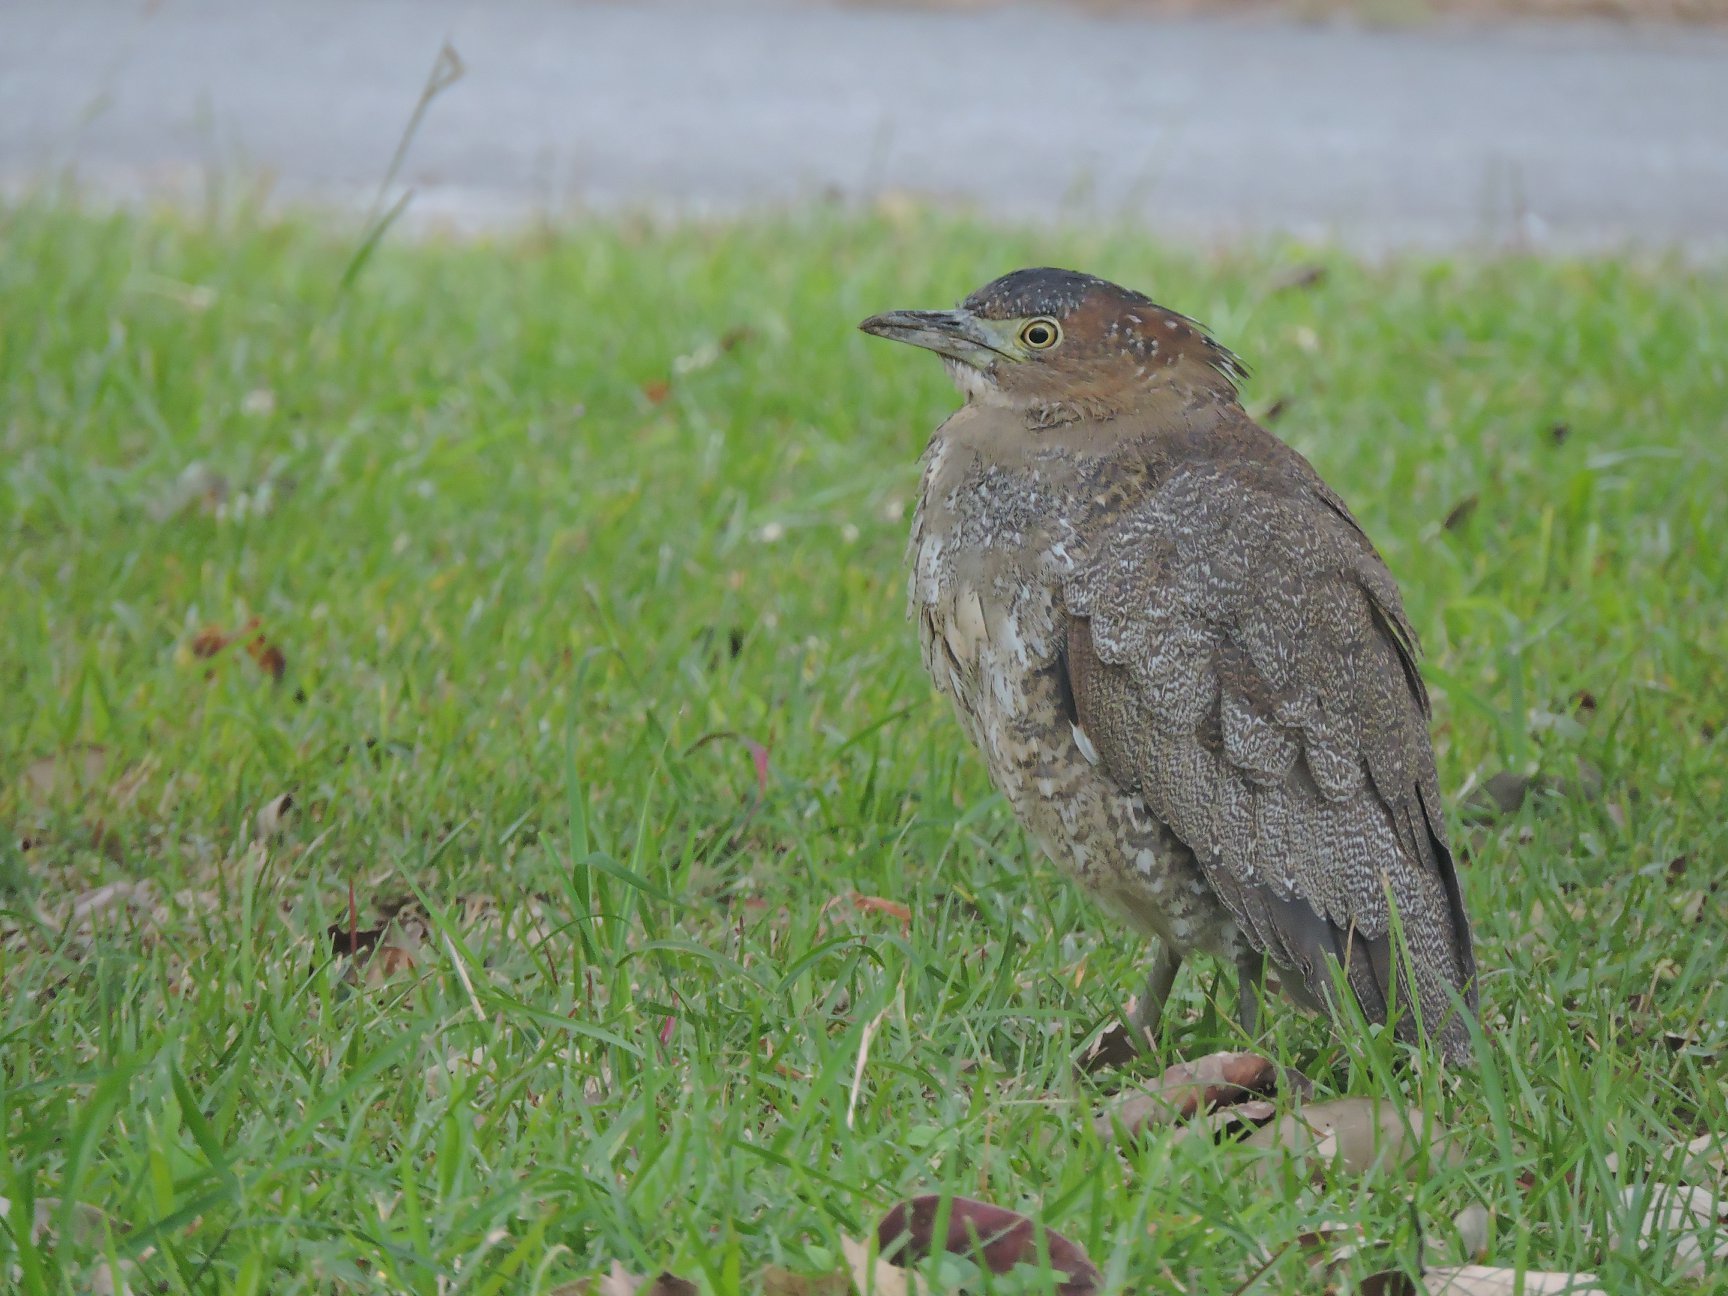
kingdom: Animalia
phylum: Chordata
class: Aves
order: Pelecaniformes
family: Ardeidae
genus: Gorsachius
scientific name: Gorsachius melanolophus
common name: Malayan night heron
